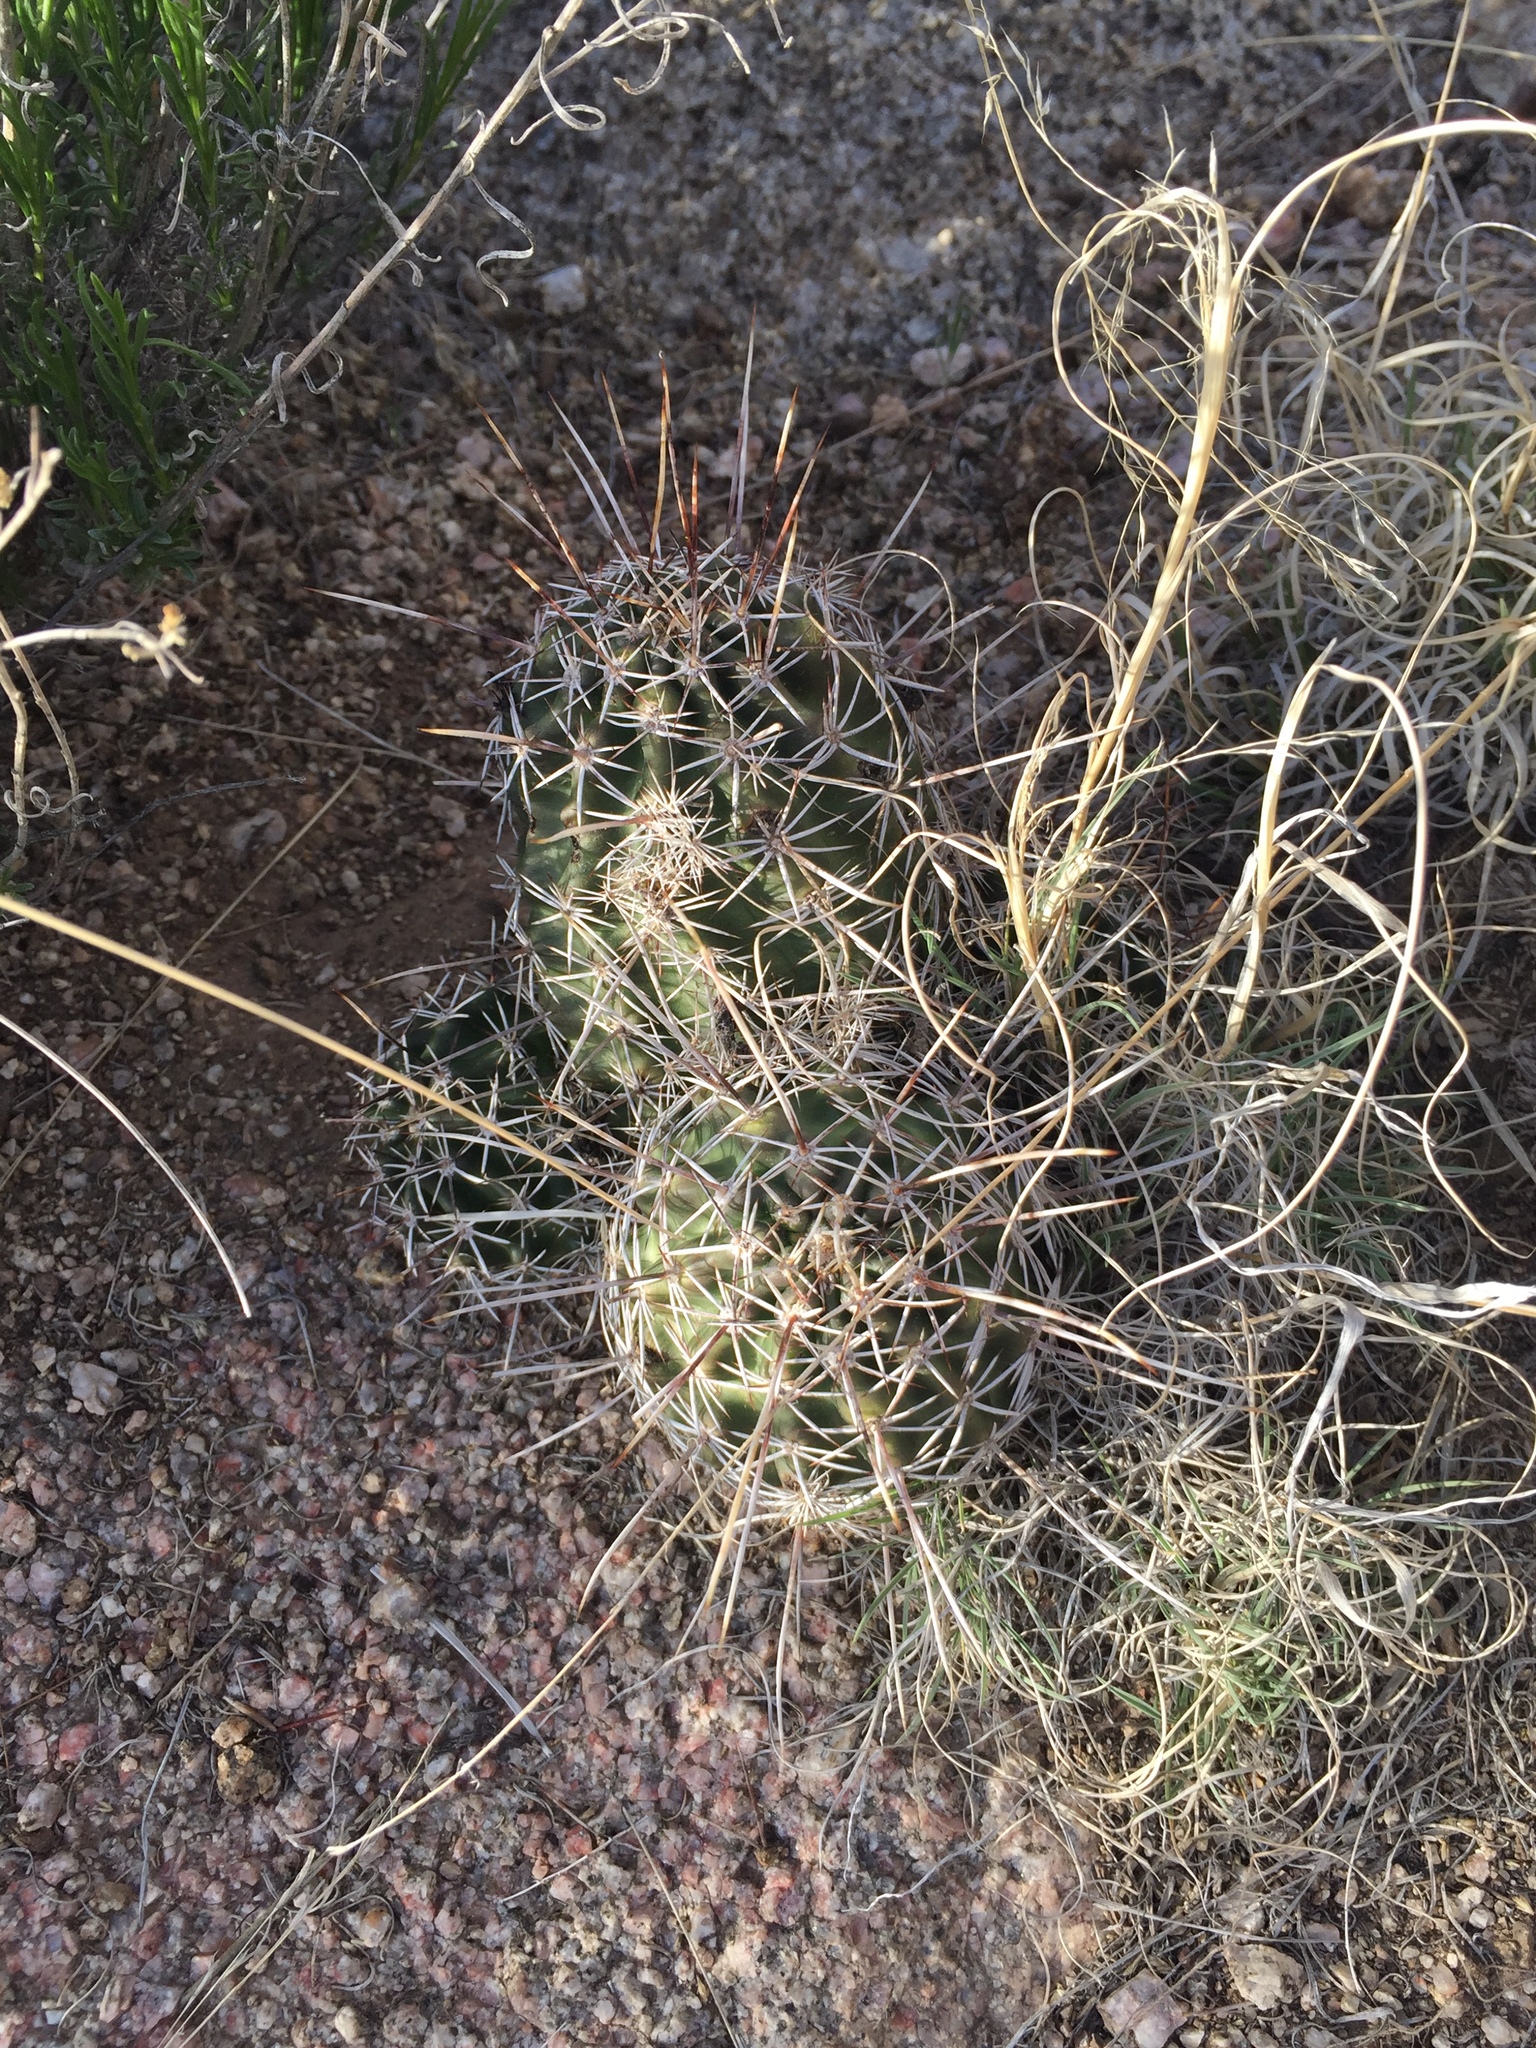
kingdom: Plantae
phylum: Tracheophyta
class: Magnoliopsida
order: Caryophyllales
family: Cactaceae
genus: Echinocereus
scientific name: Echinocereus fendleri
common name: Fendler's hedgehog cactus
